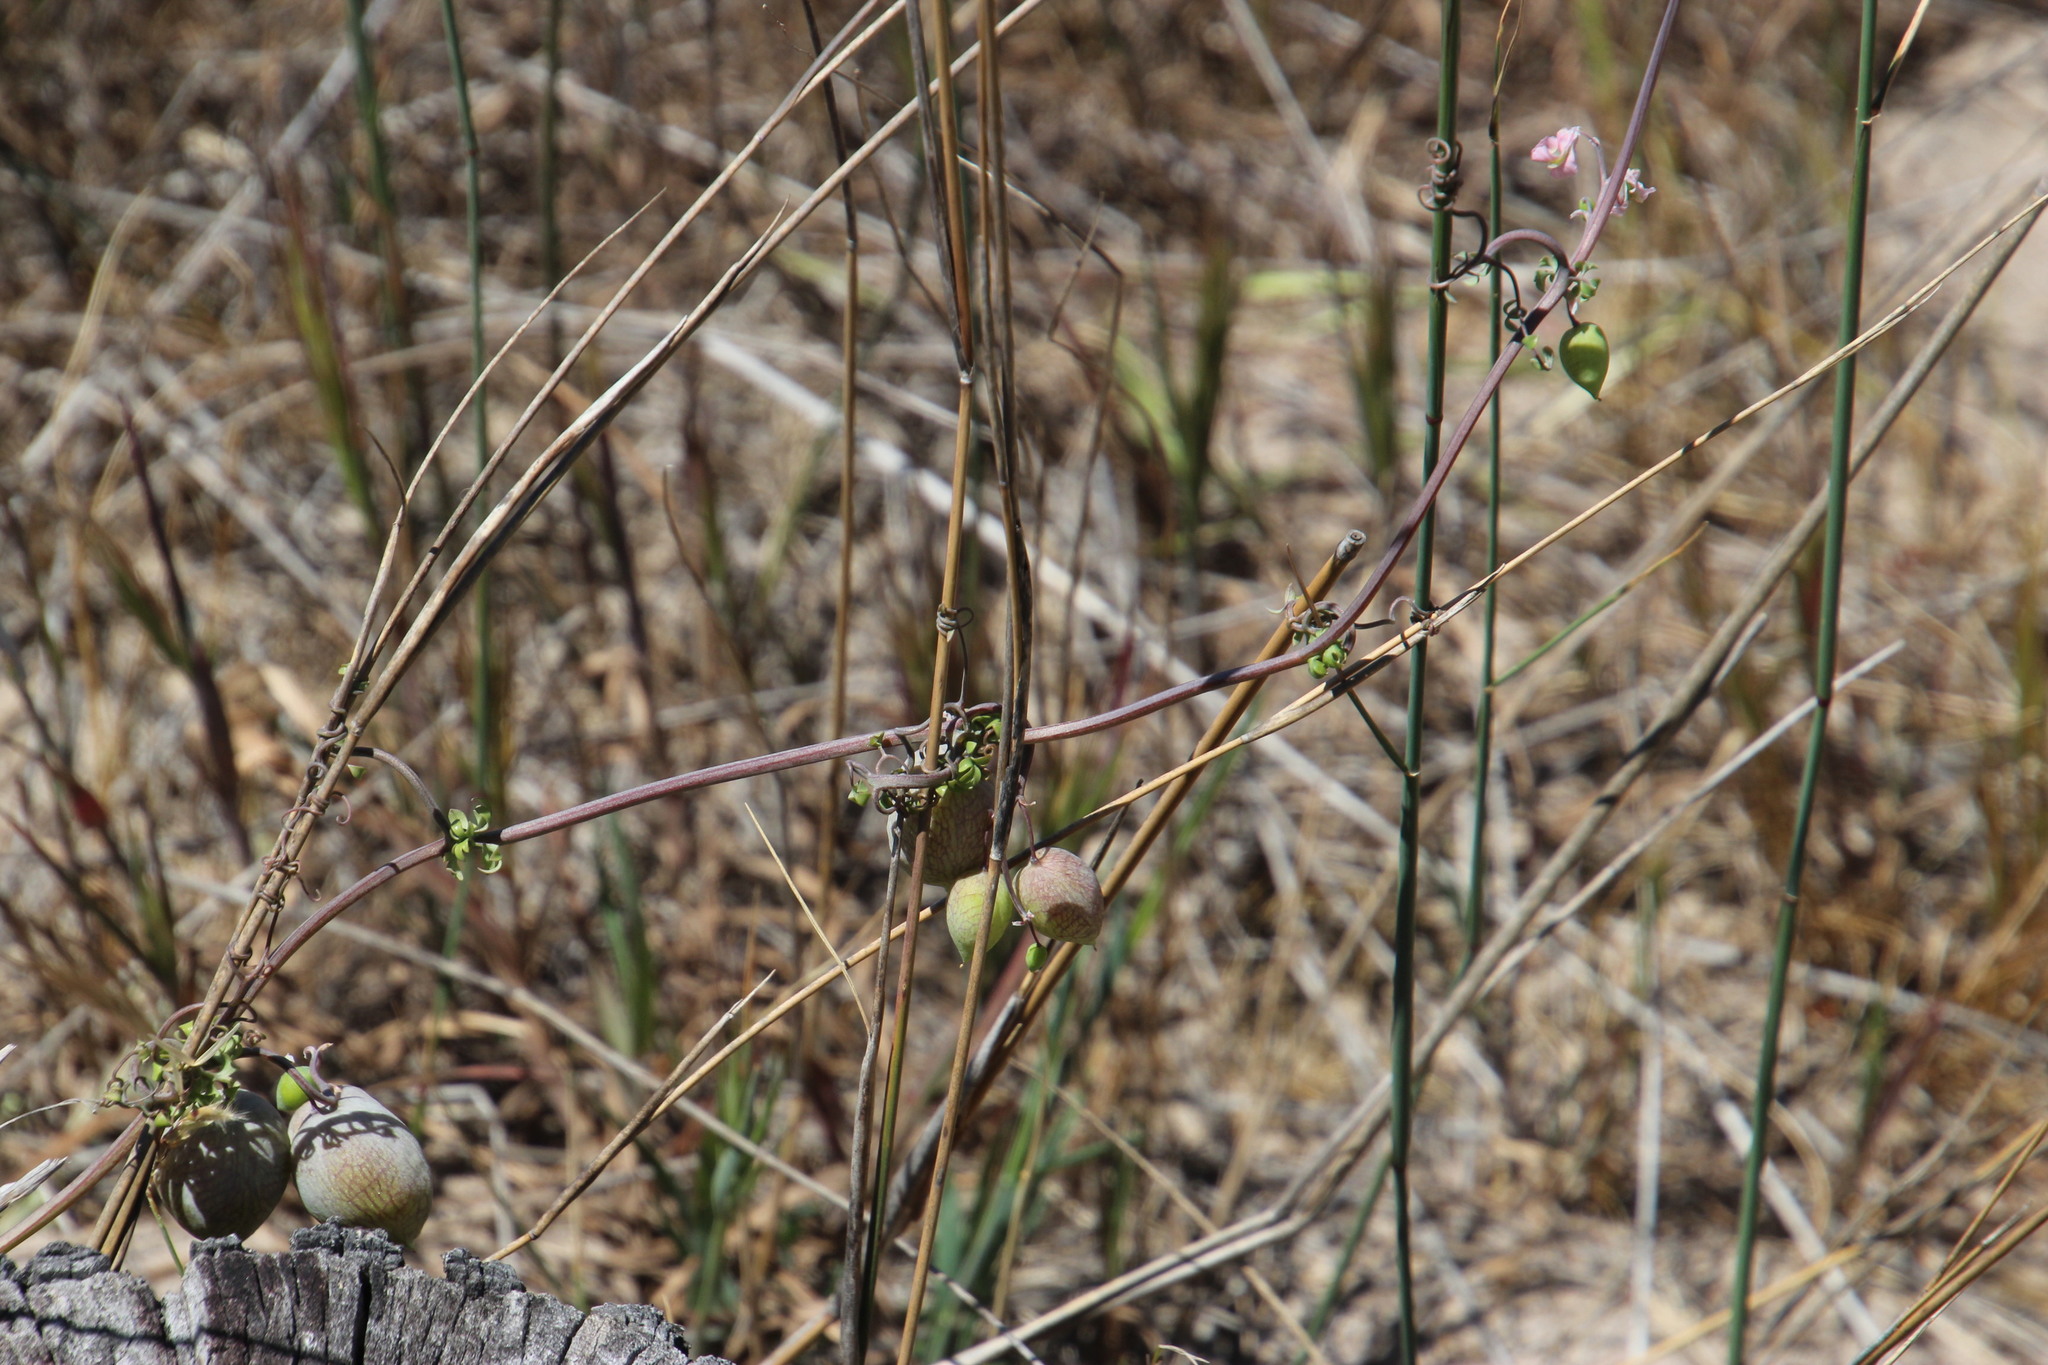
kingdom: Plantae
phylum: Tracheophyta
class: Magnoliopsida
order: Ranunculales
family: Papaveraceae
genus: Cysticapnos
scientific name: Cysticapnos vesicaria
